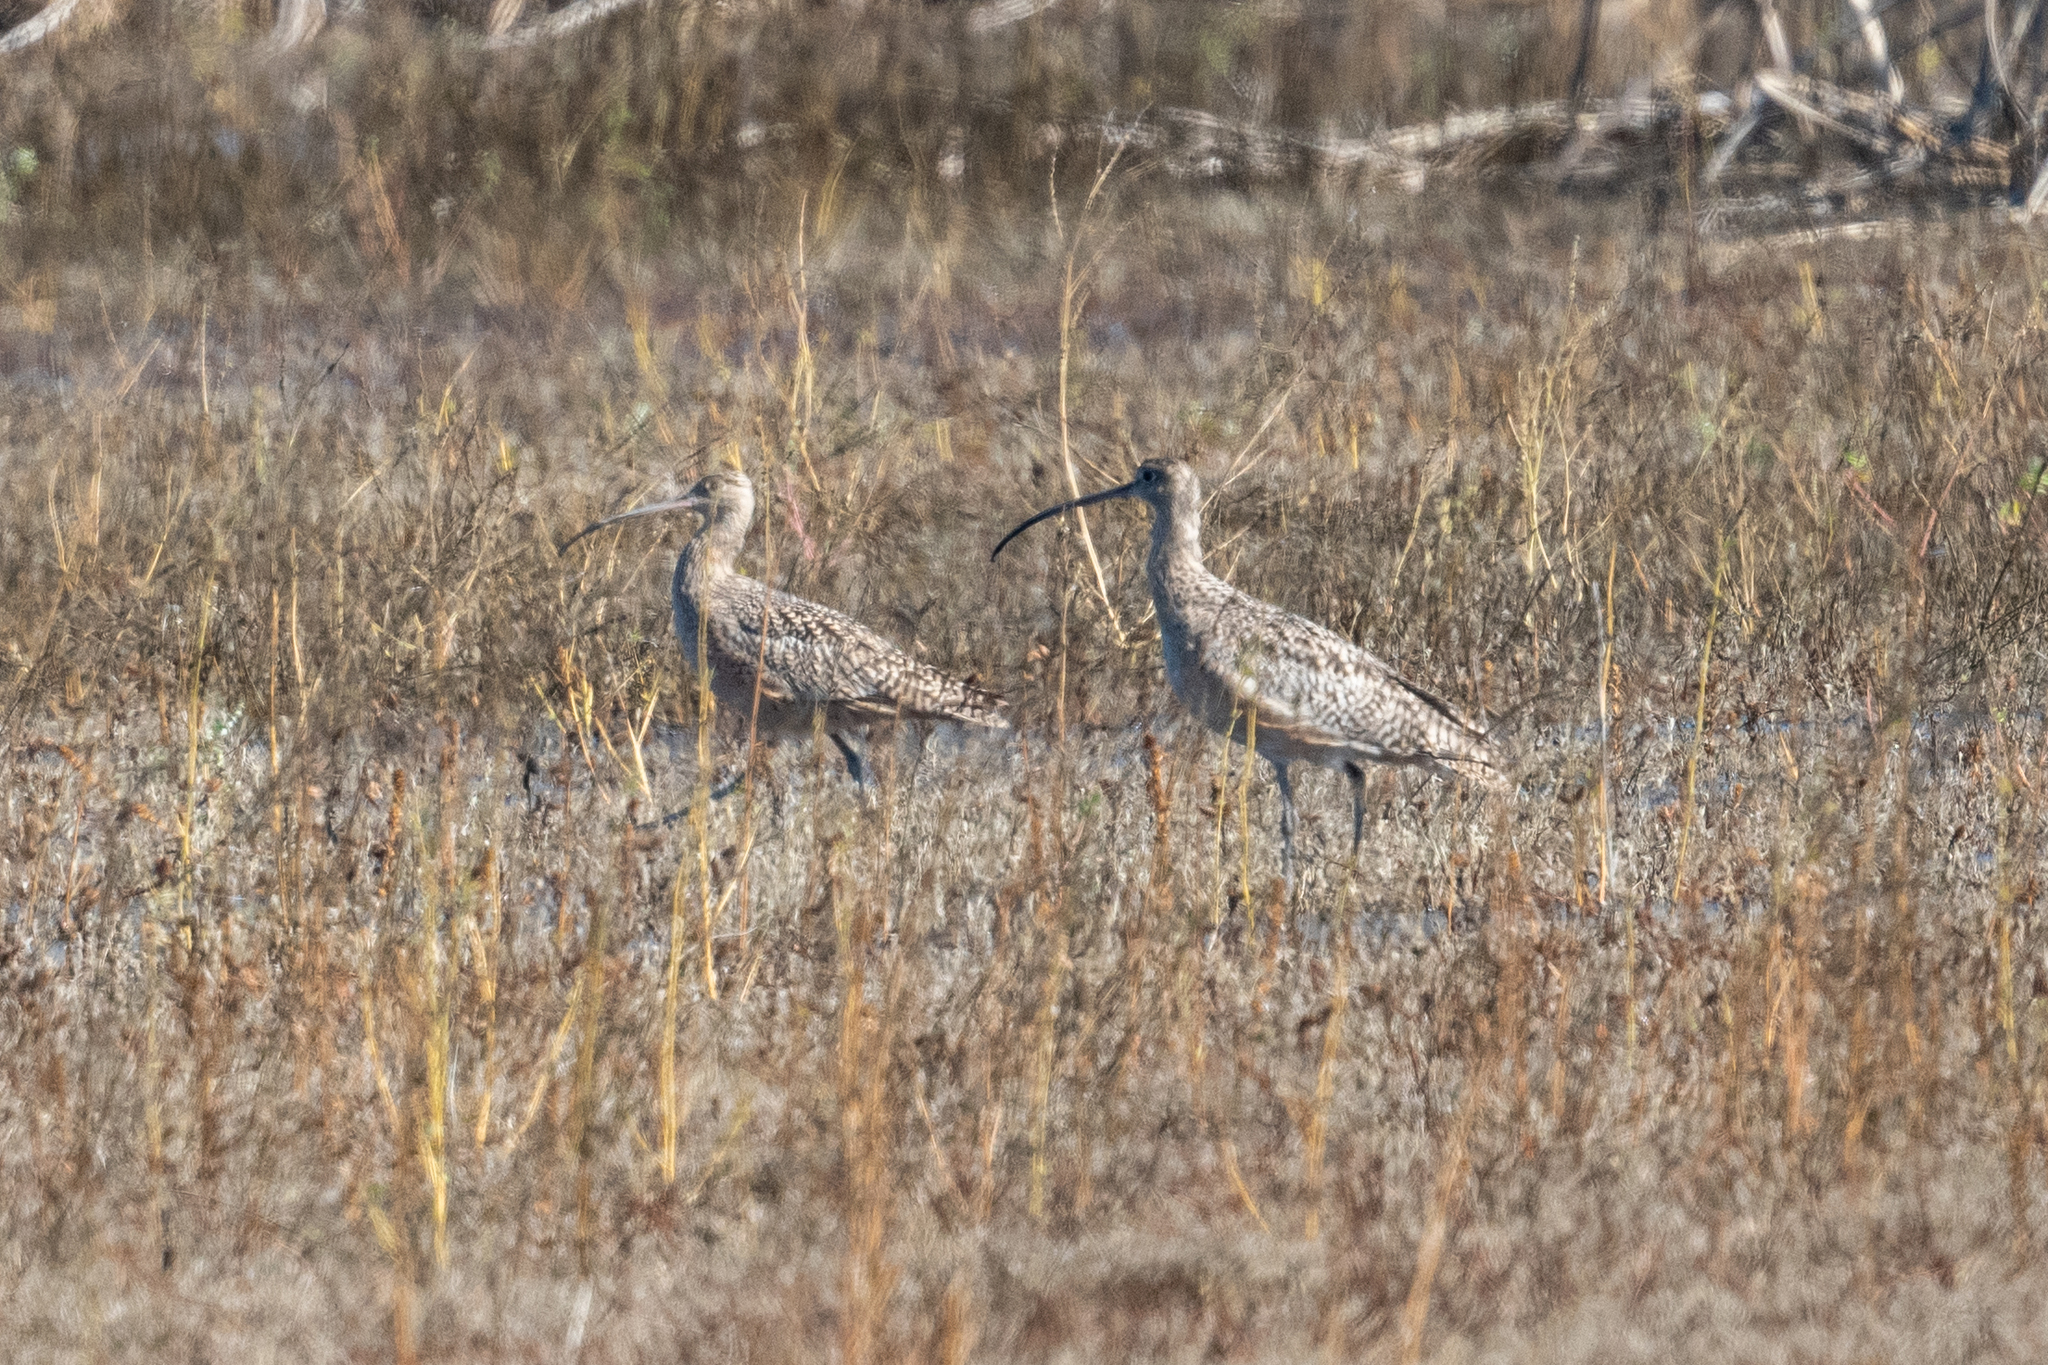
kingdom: Animalia
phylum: Chordata
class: Aves
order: Charadriiformes
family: Scolopacidae
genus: Numenius
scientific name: Numenius americanus
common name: Long-billed curlew
